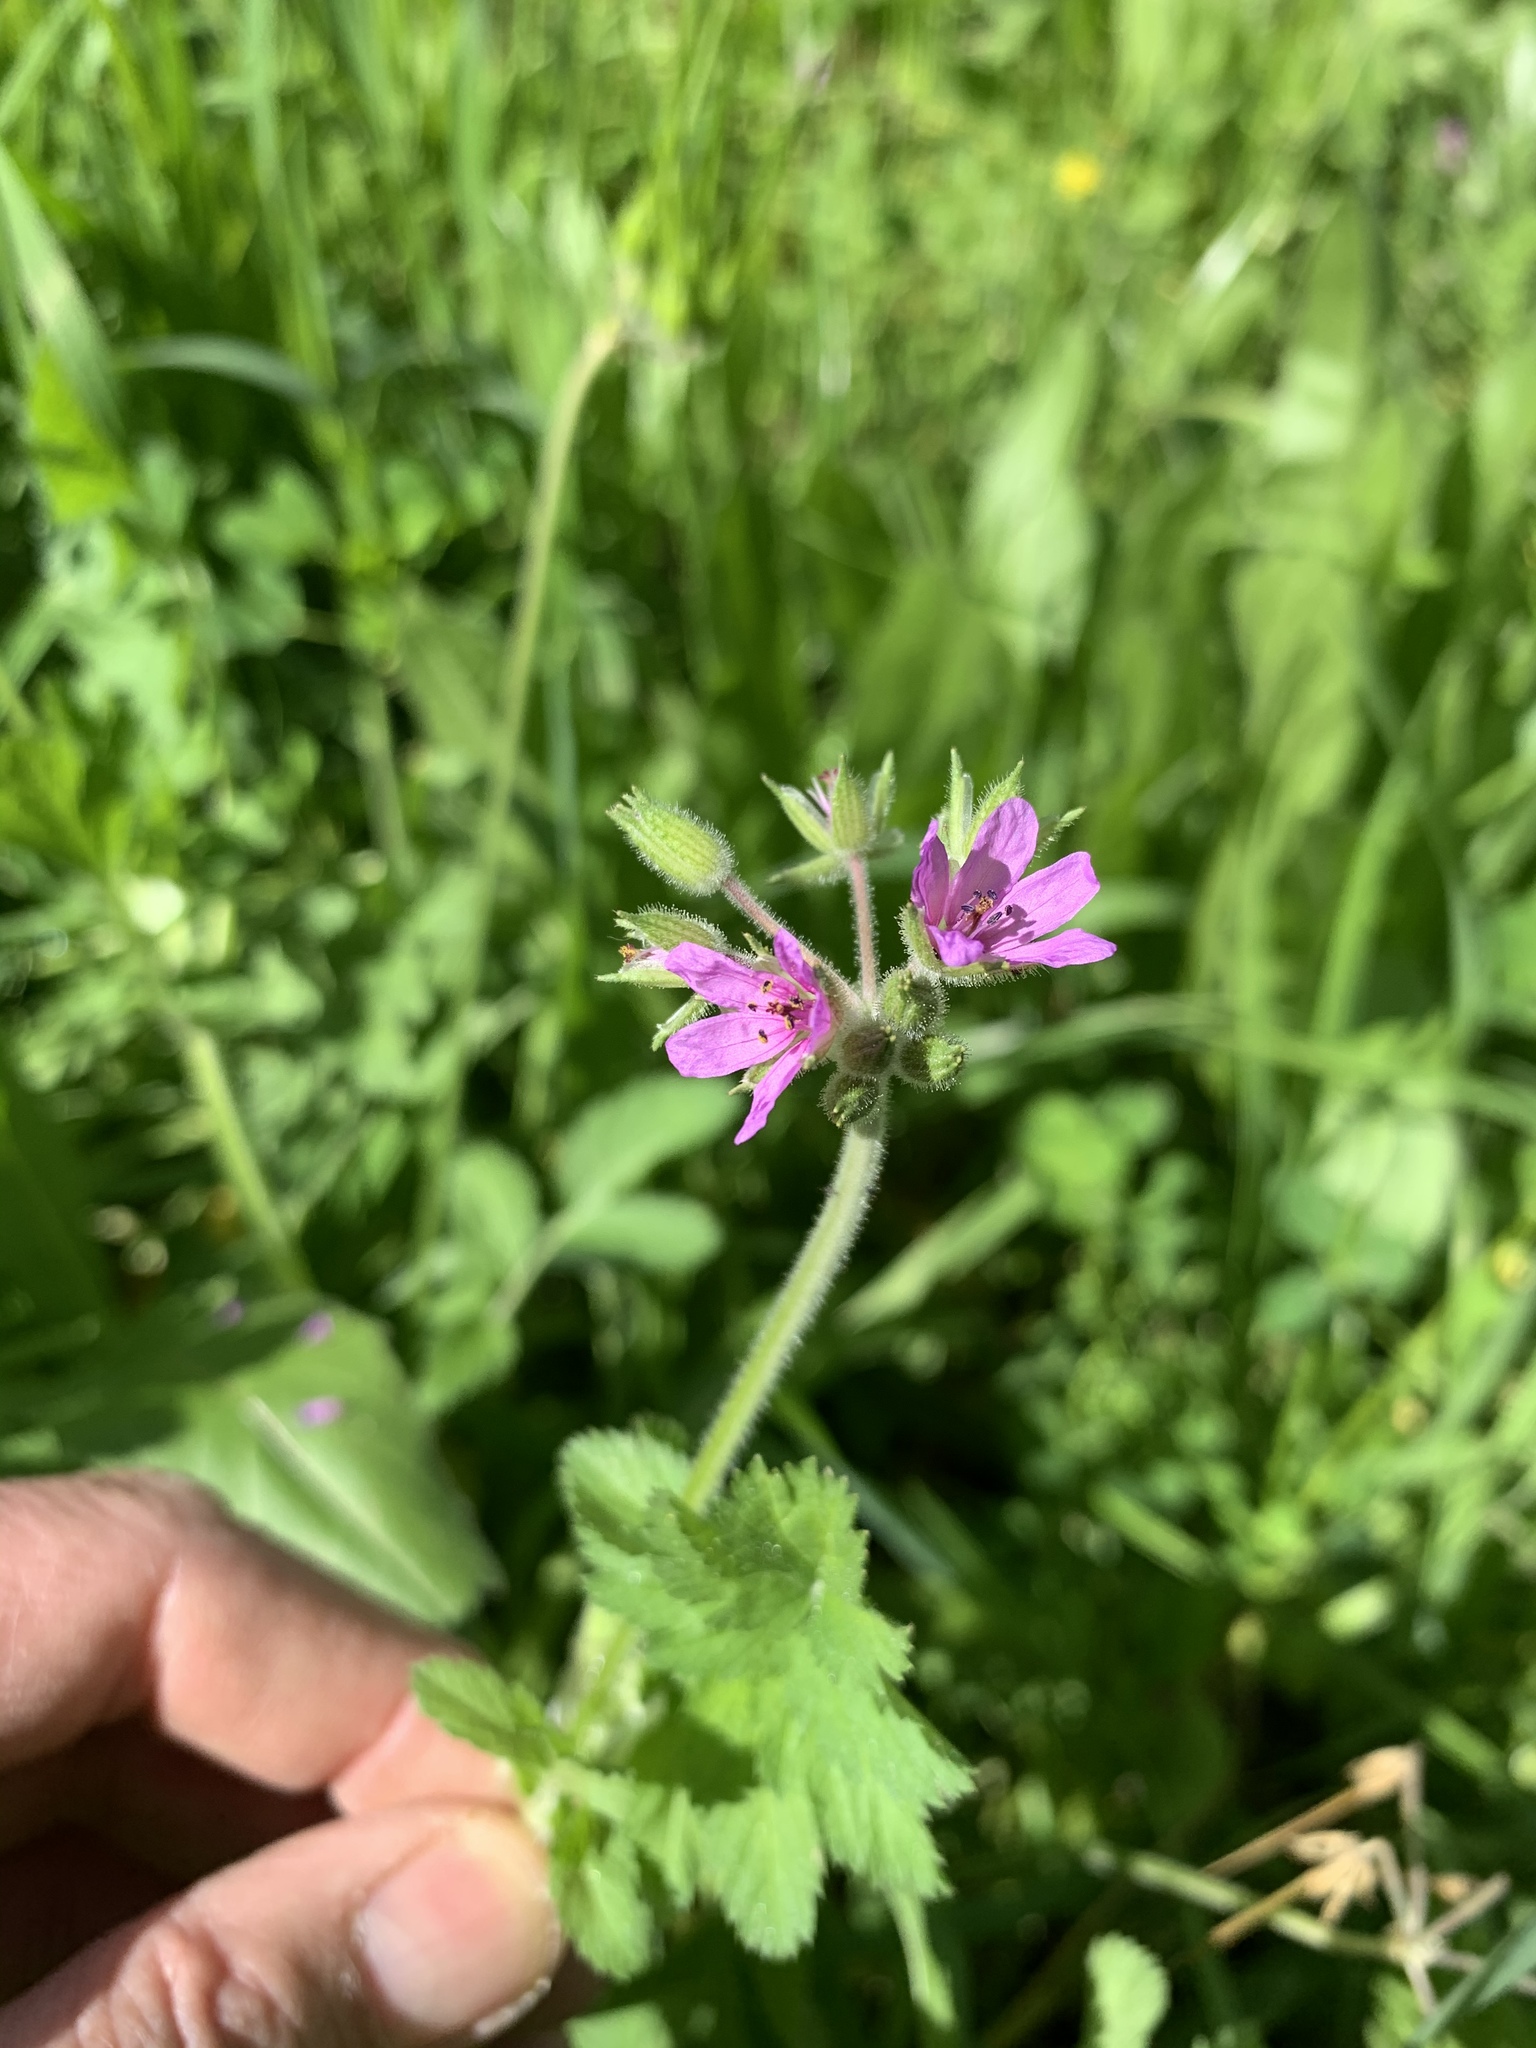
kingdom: Plantae
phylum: Tracheophyta
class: Magnoliopsida
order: Geraniales
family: Geraniaceae
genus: Erodium
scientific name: Erodium moschatum
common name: Musk stork's-bill
